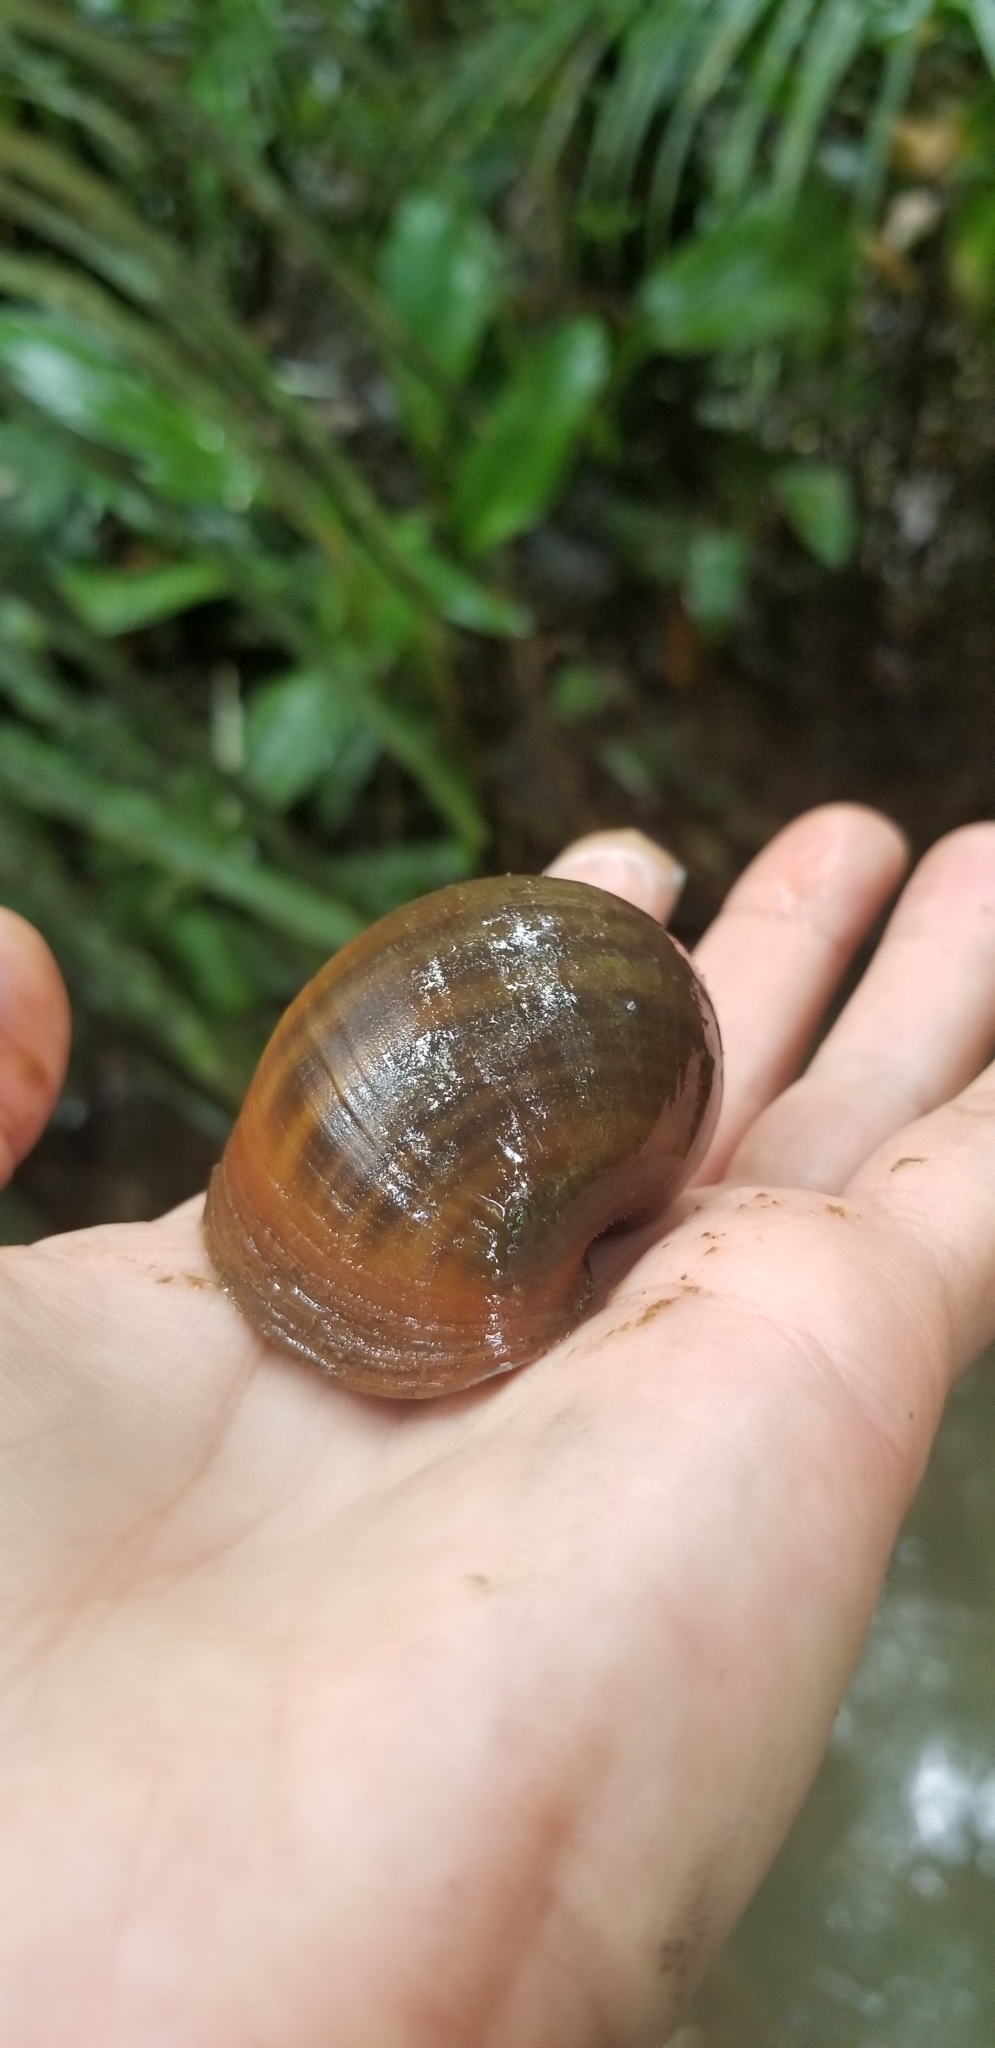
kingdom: Animalia
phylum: Mollusca
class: Gastropoda
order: Architaenioglossa
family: Ampullariidae
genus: Pomacea
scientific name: Pomacea maculata
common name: Giant applesnail
